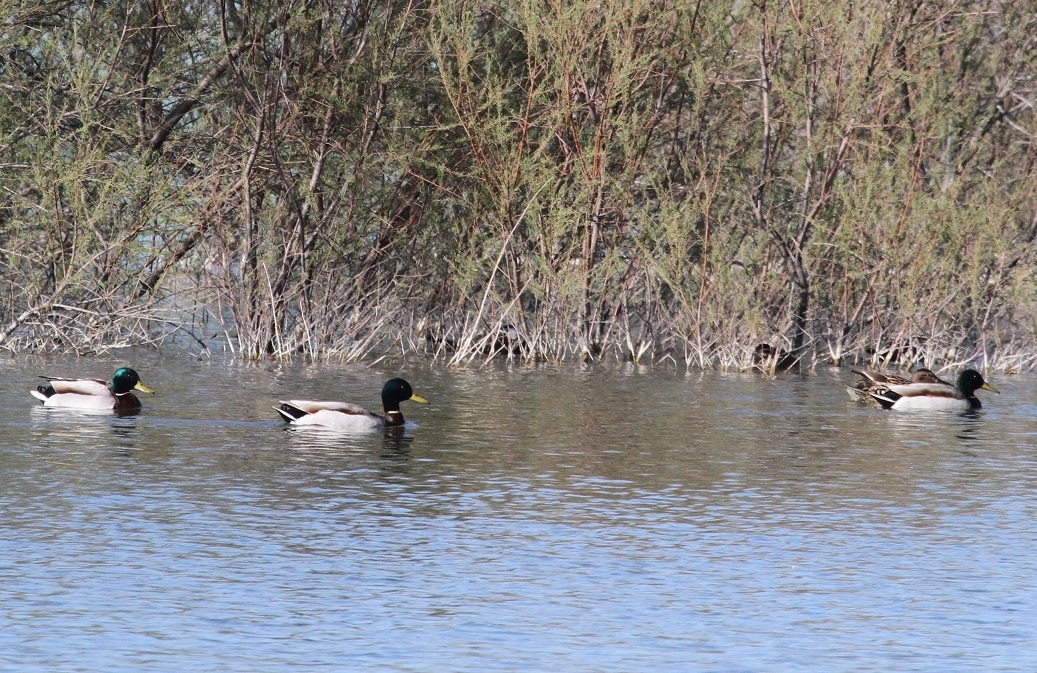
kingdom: Animalia
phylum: Chordata
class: Aves
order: Anseriformes
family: Anatidae
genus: Anas
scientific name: Anas platyrhynchos
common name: Mallard
